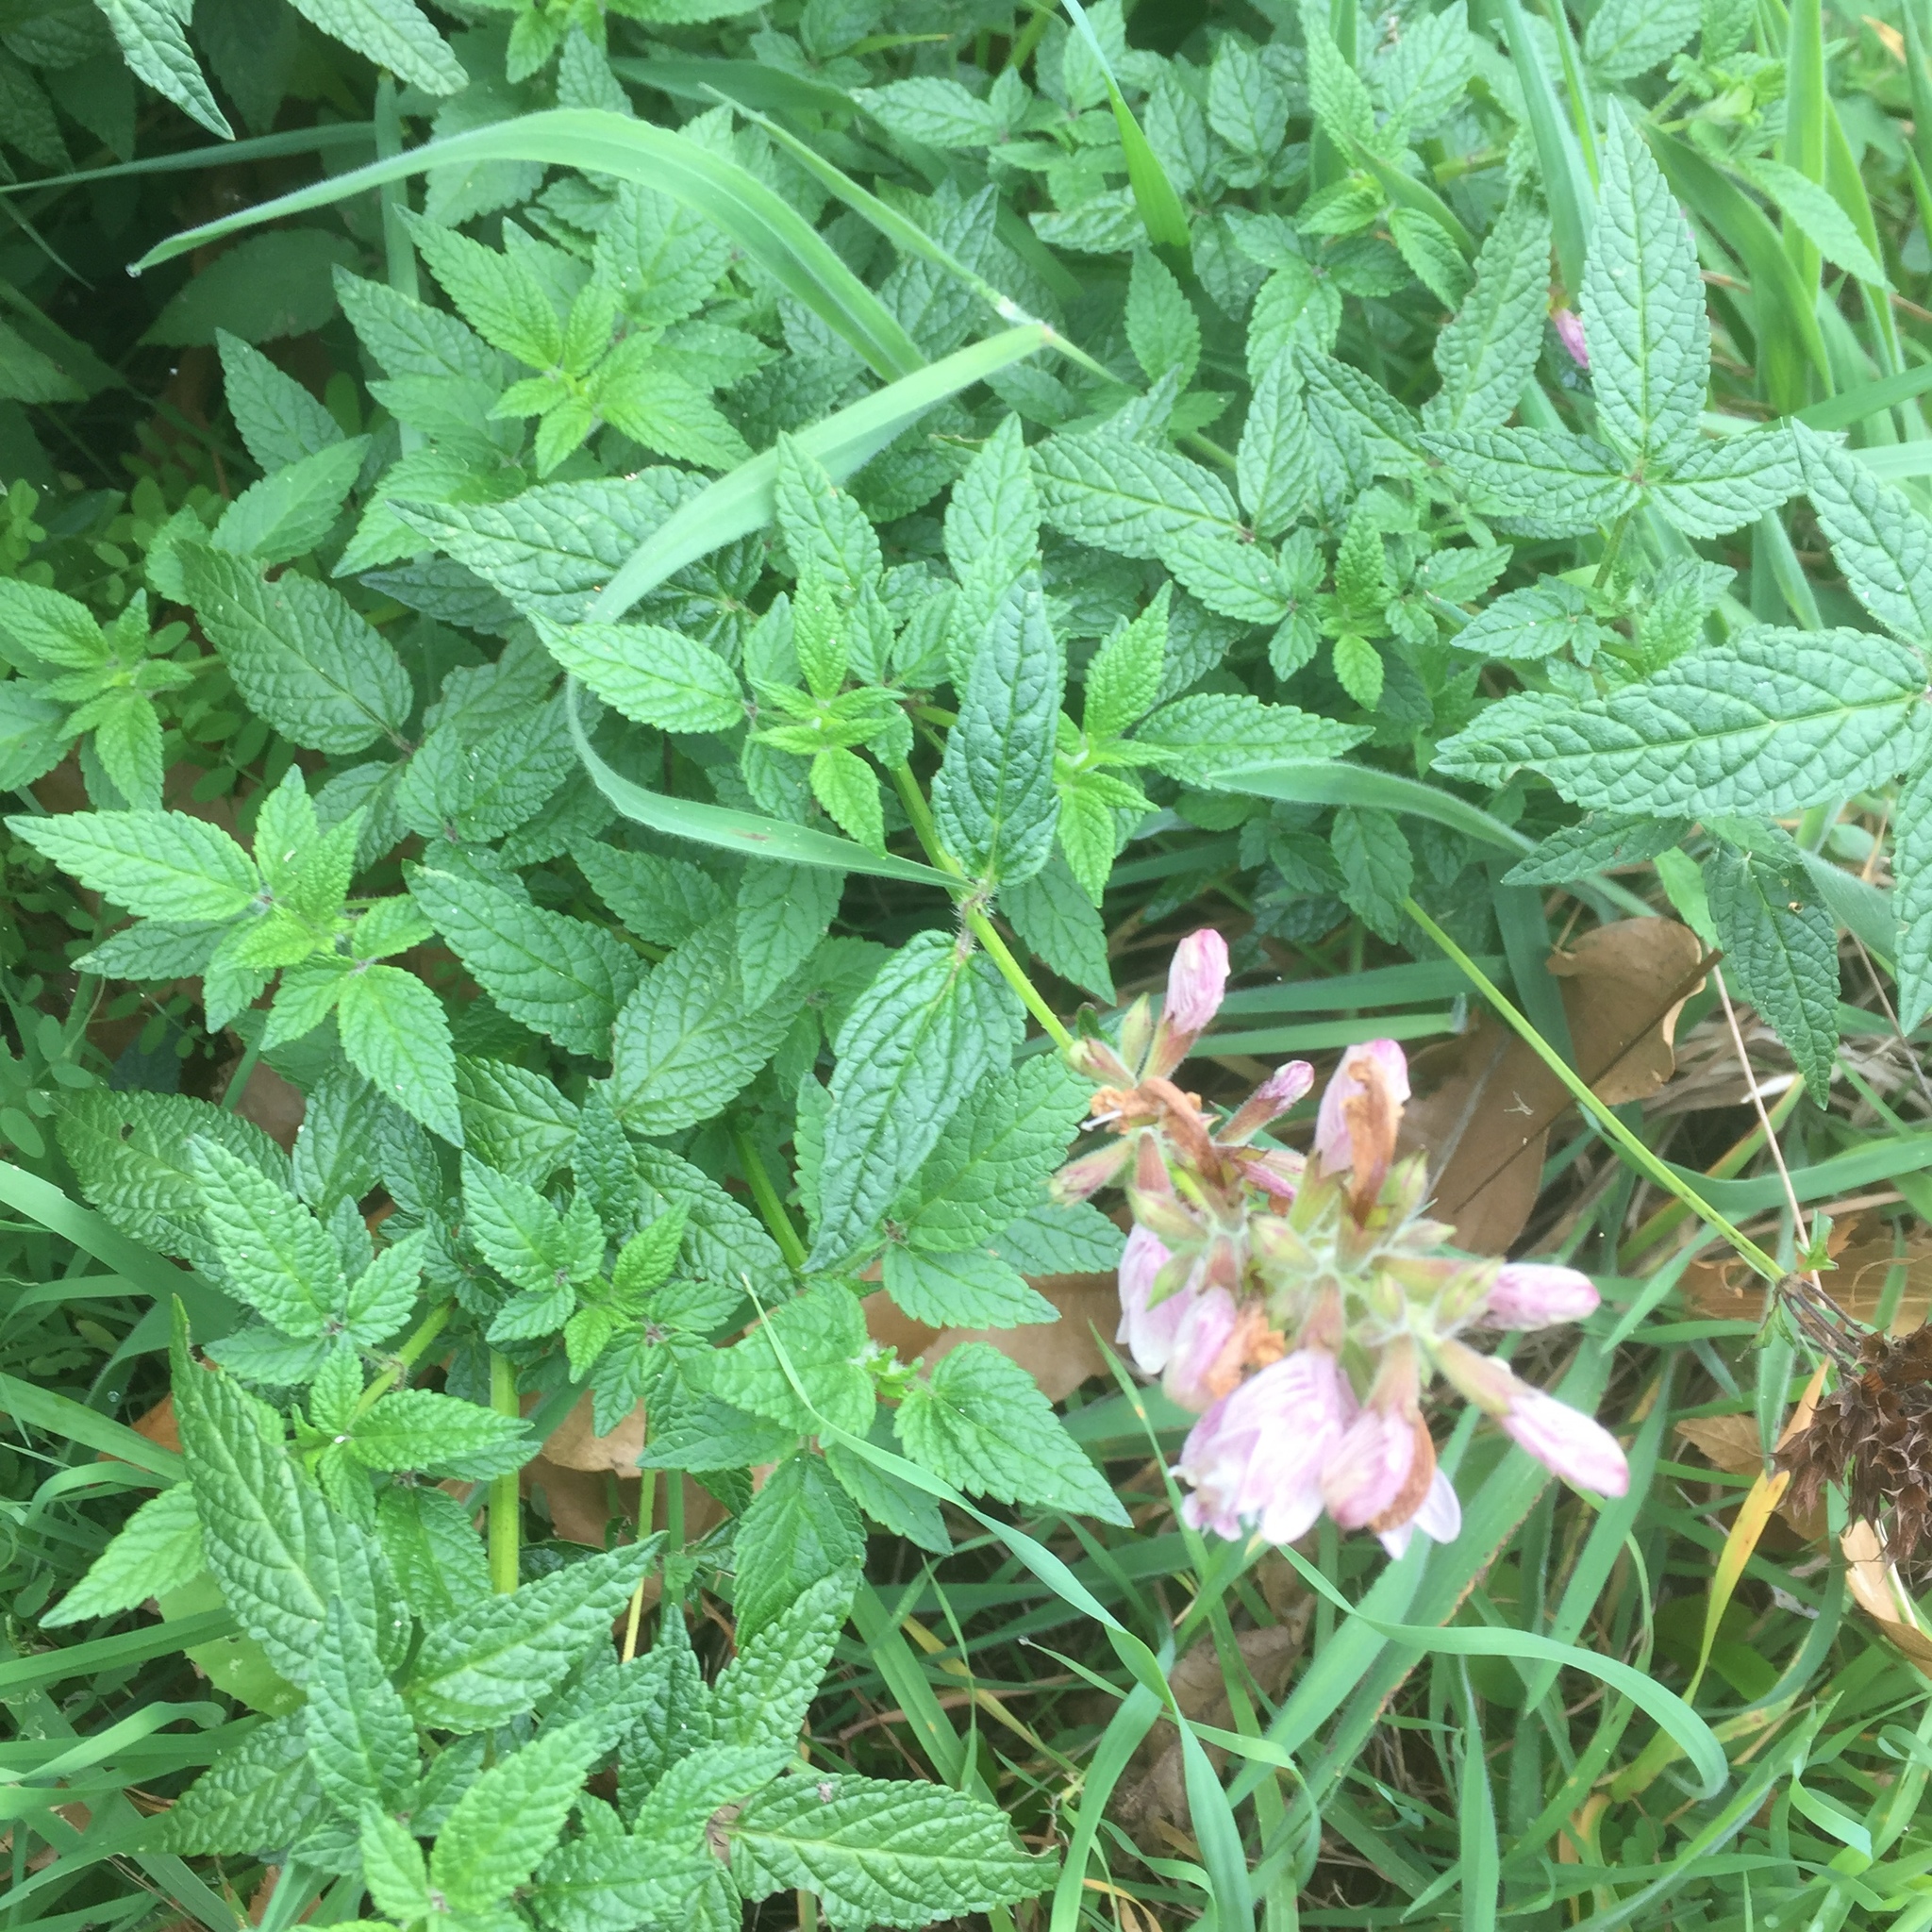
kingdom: Plantae
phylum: Tracheophyta
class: Magnoliopsida
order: Lamiales
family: Lamiaceae
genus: Cedronella
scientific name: Cedronella canariensis
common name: Canary islands balm
